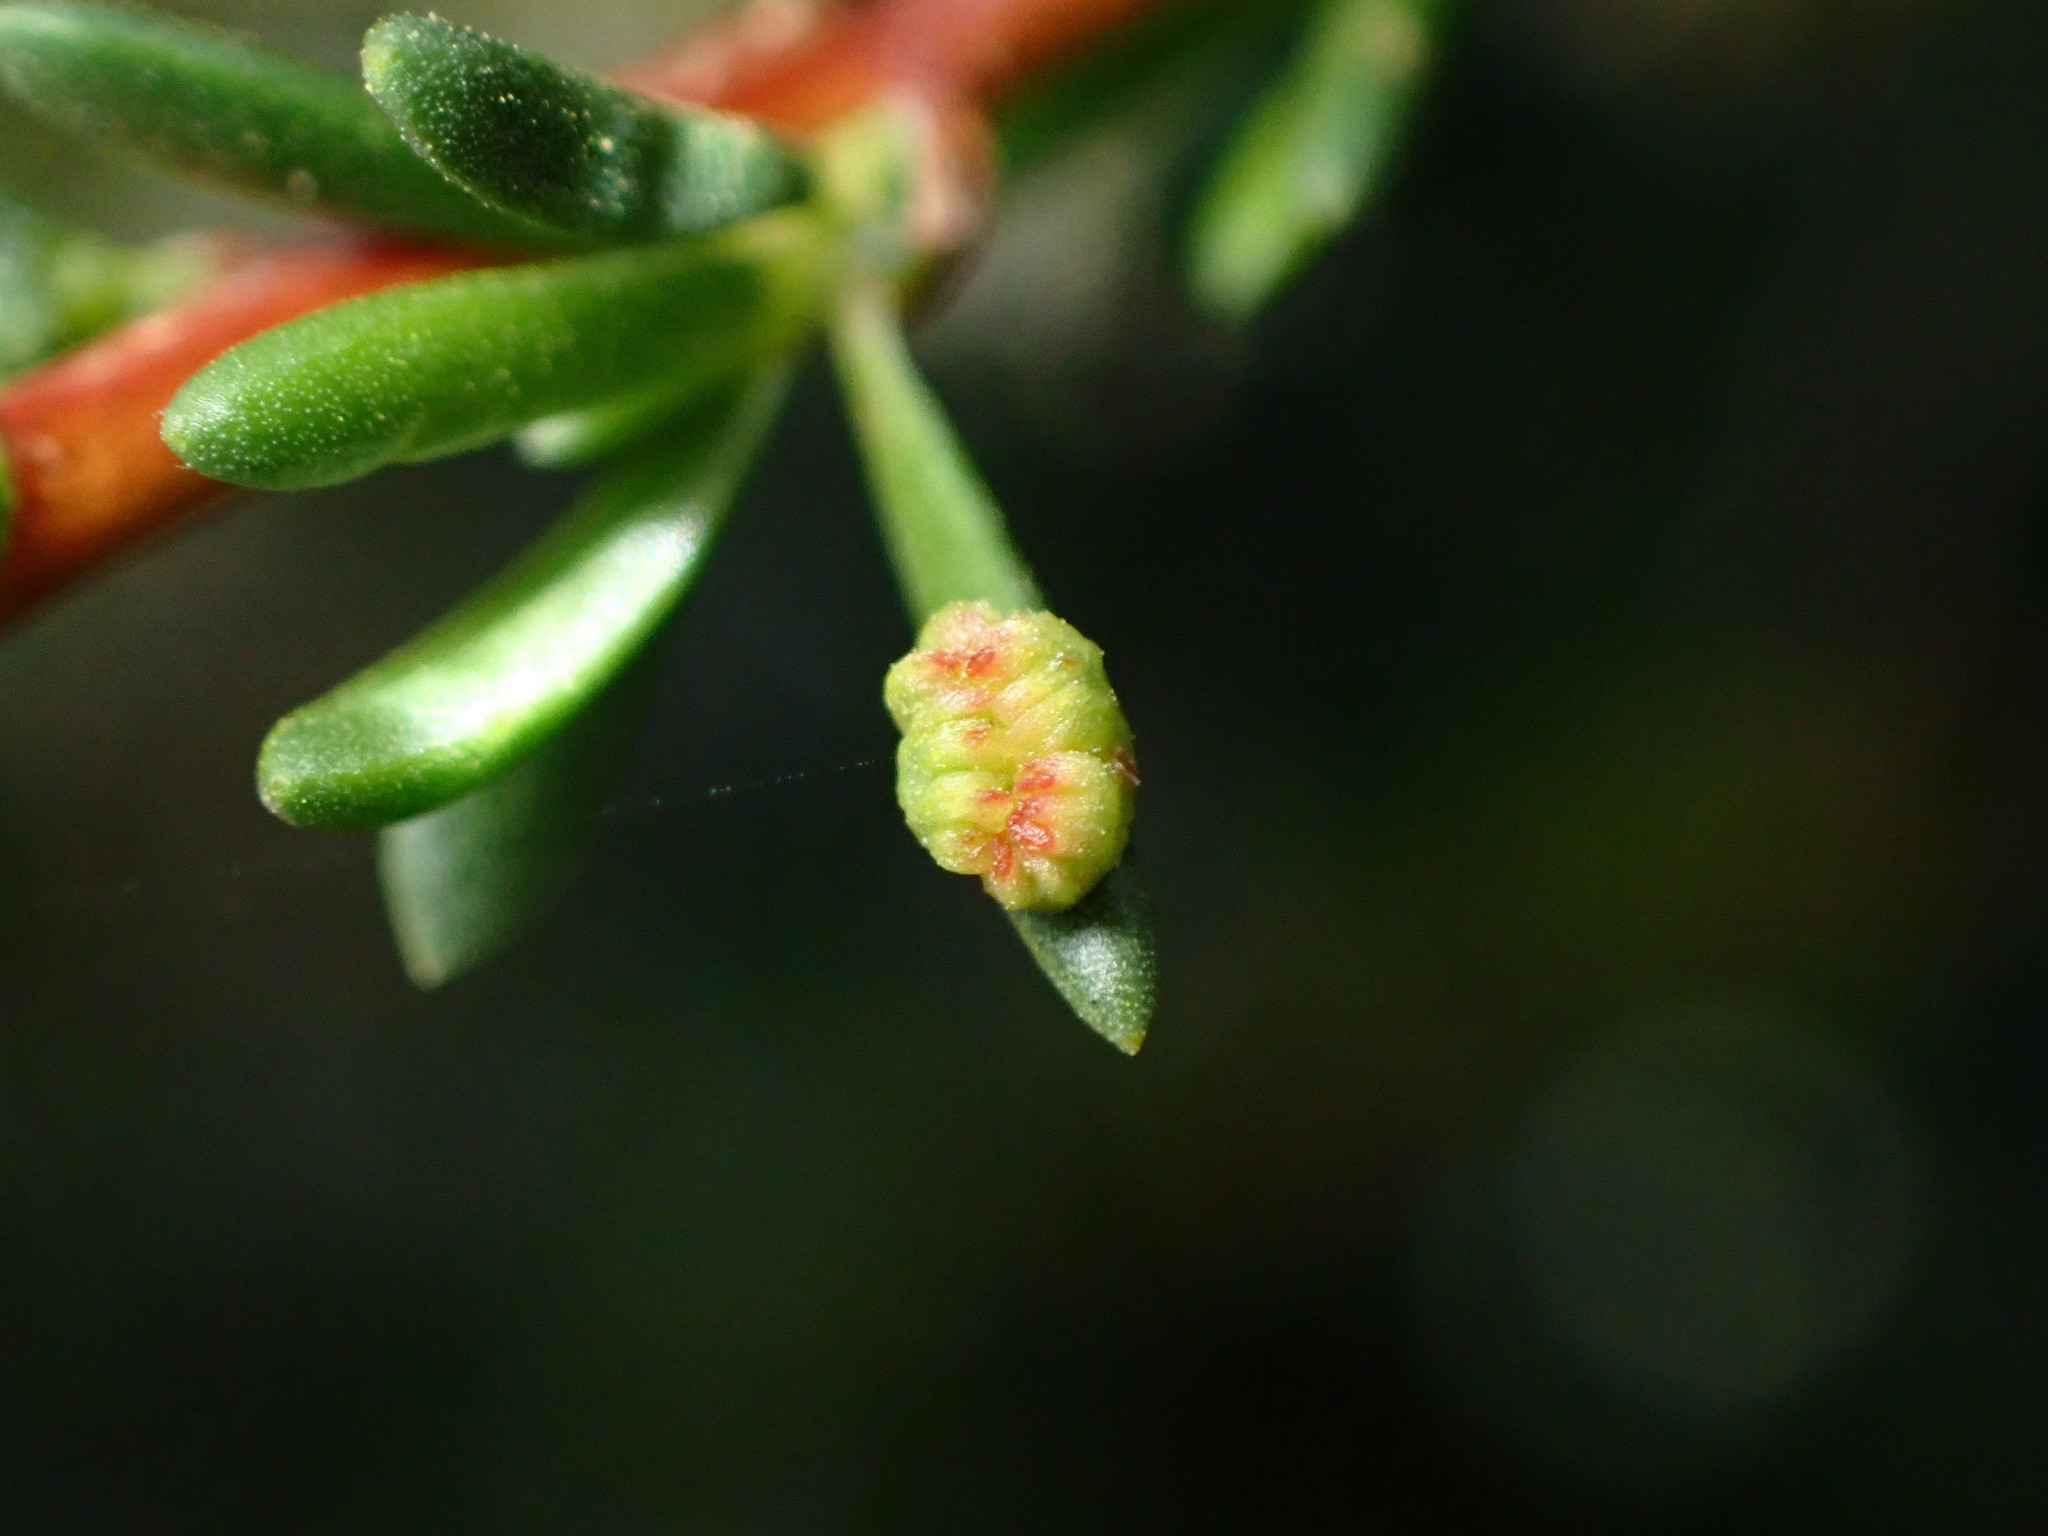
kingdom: Animalia
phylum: Arthropoda
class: Arachnida
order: Trombidiformes
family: Eriophyidae
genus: Eriophyes
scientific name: Eriophyes
